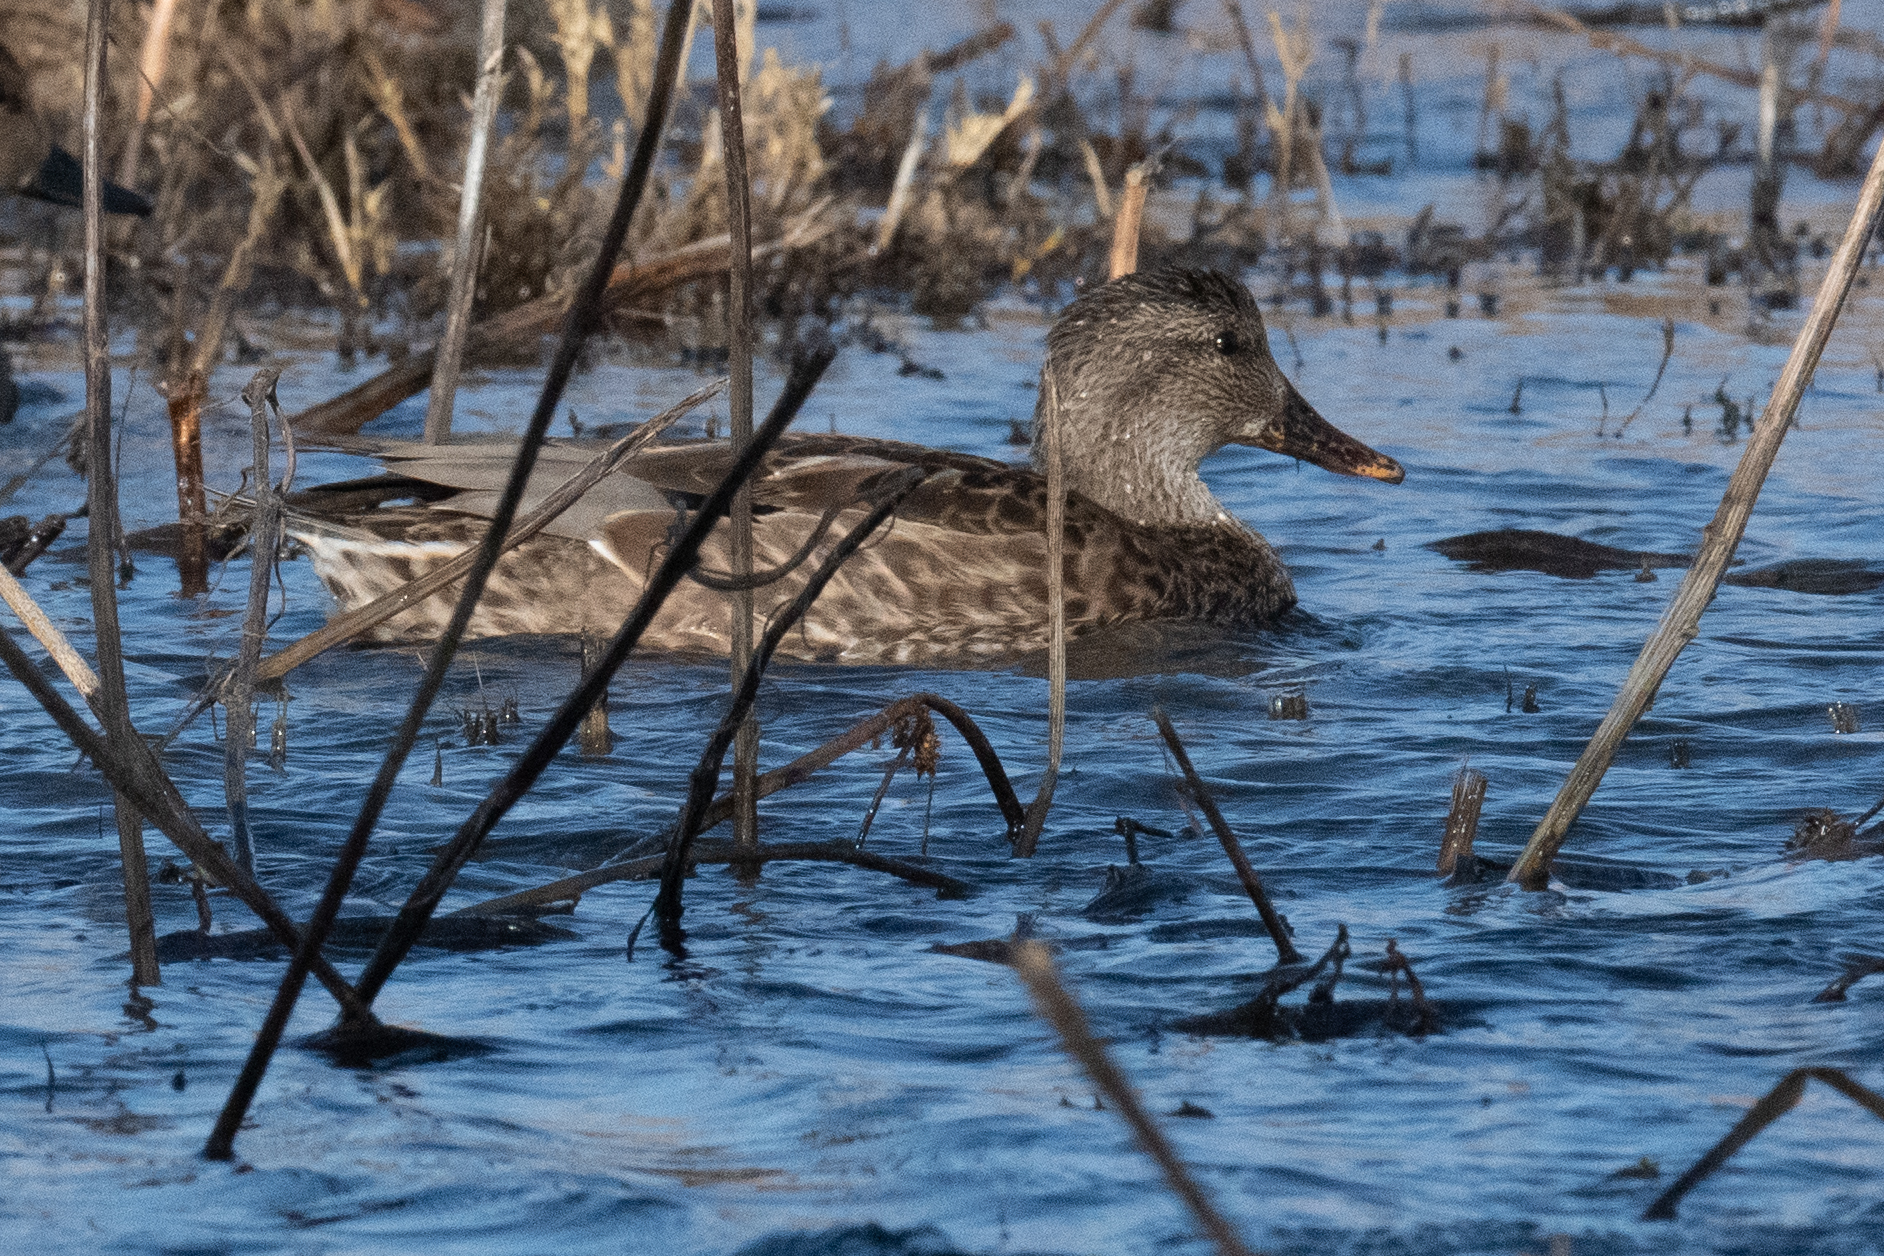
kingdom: Animalia
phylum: Chordata
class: Aves
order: Anseriformes
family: Anatidae
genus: Mareca
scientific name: Mareca strepera
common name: Gadwall
